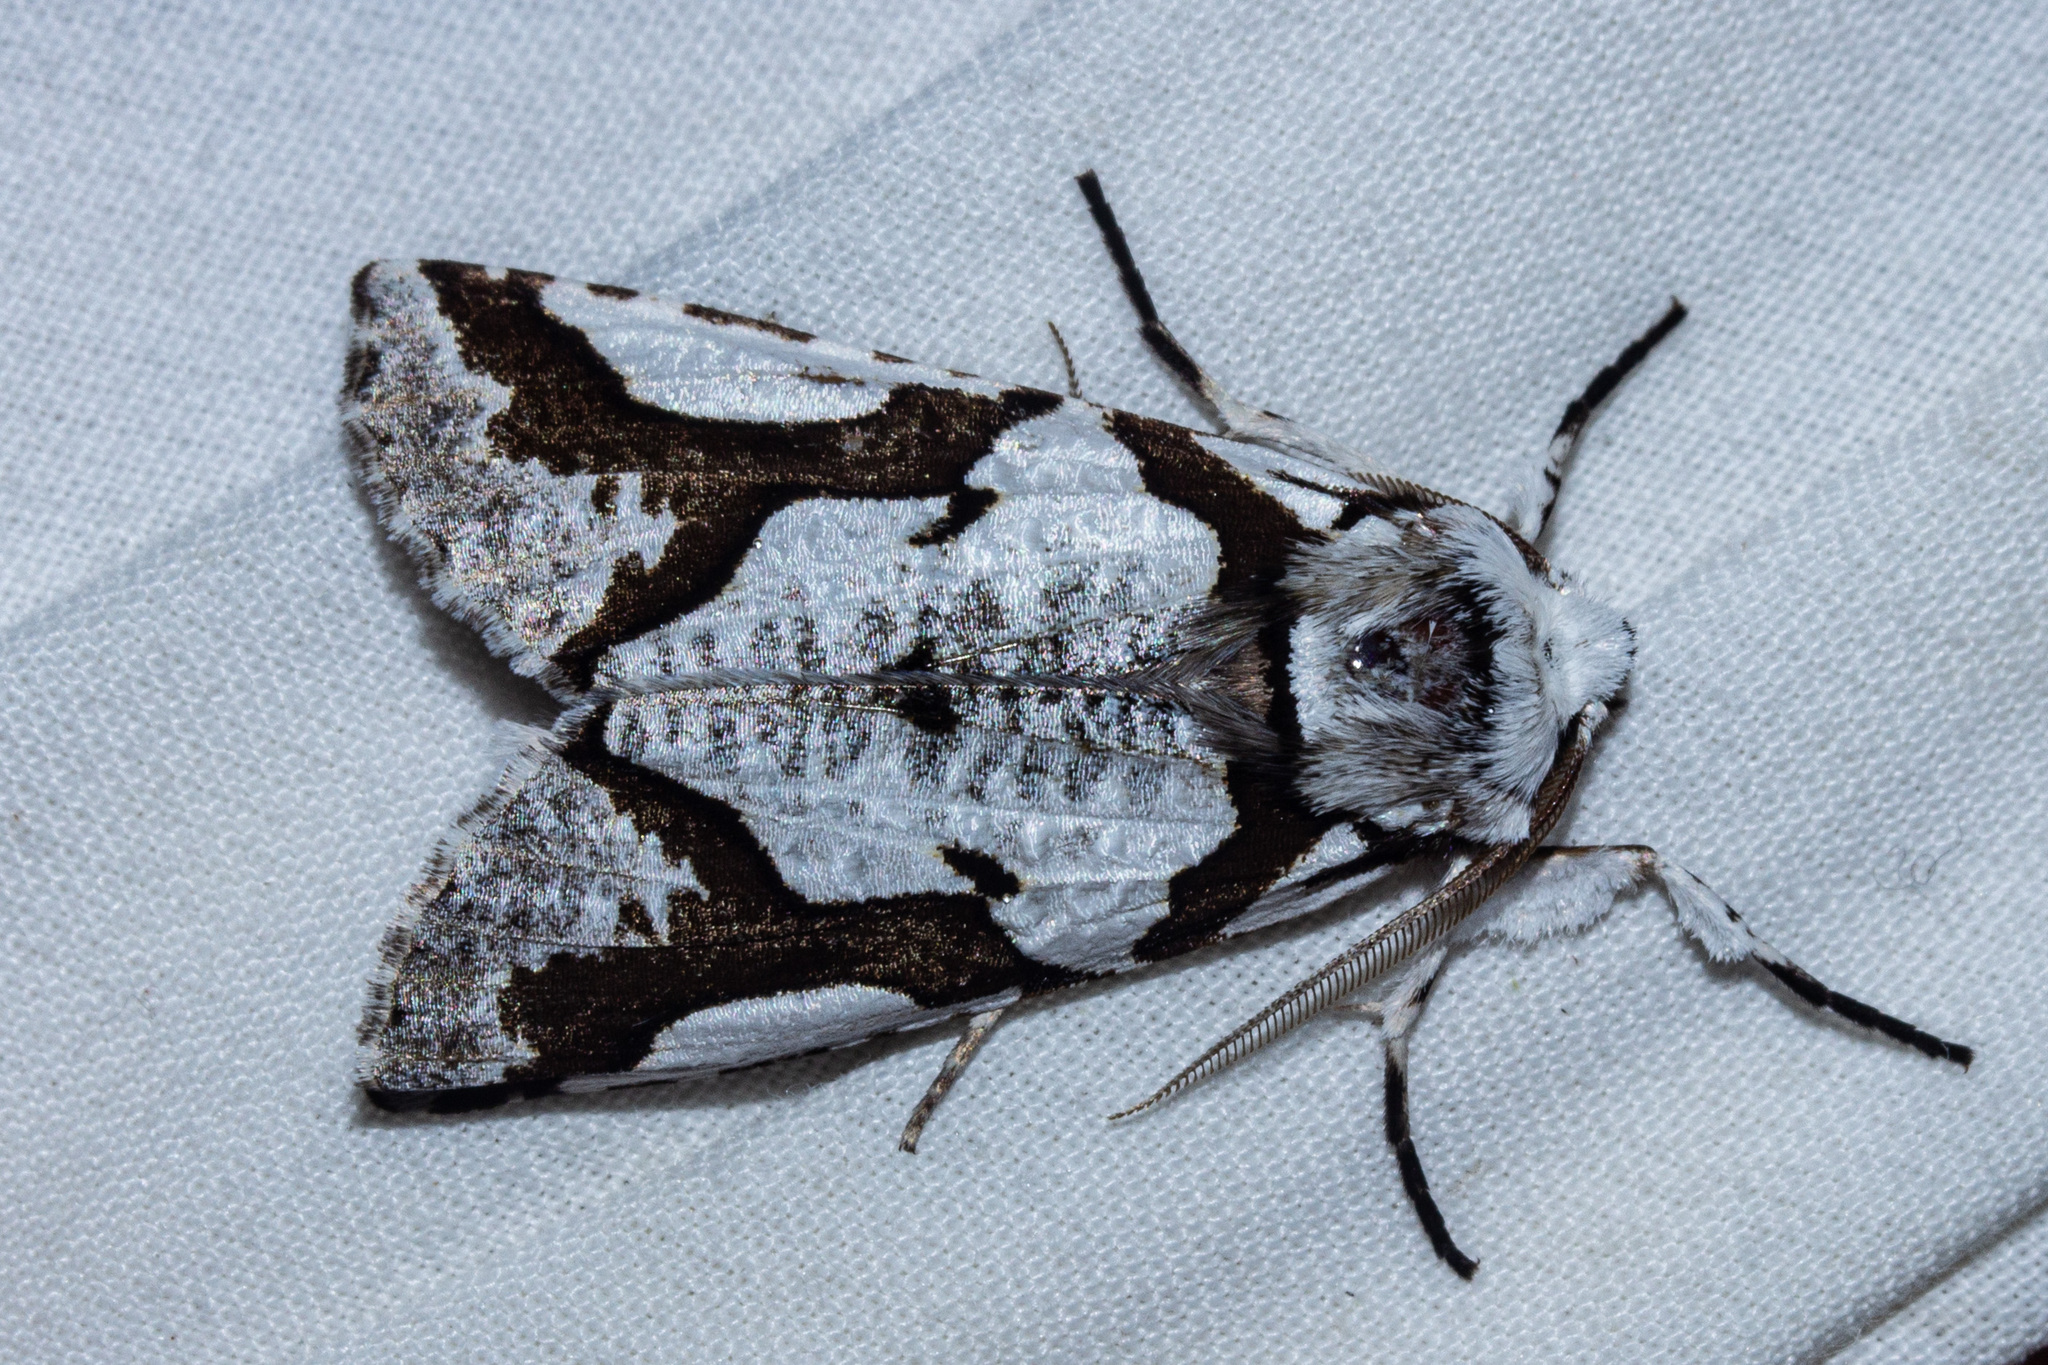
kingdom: Animalia
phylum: Arthropoda
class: Insecta
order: Lepidoptera
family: Geometridae
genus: Declana
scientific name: Declana
